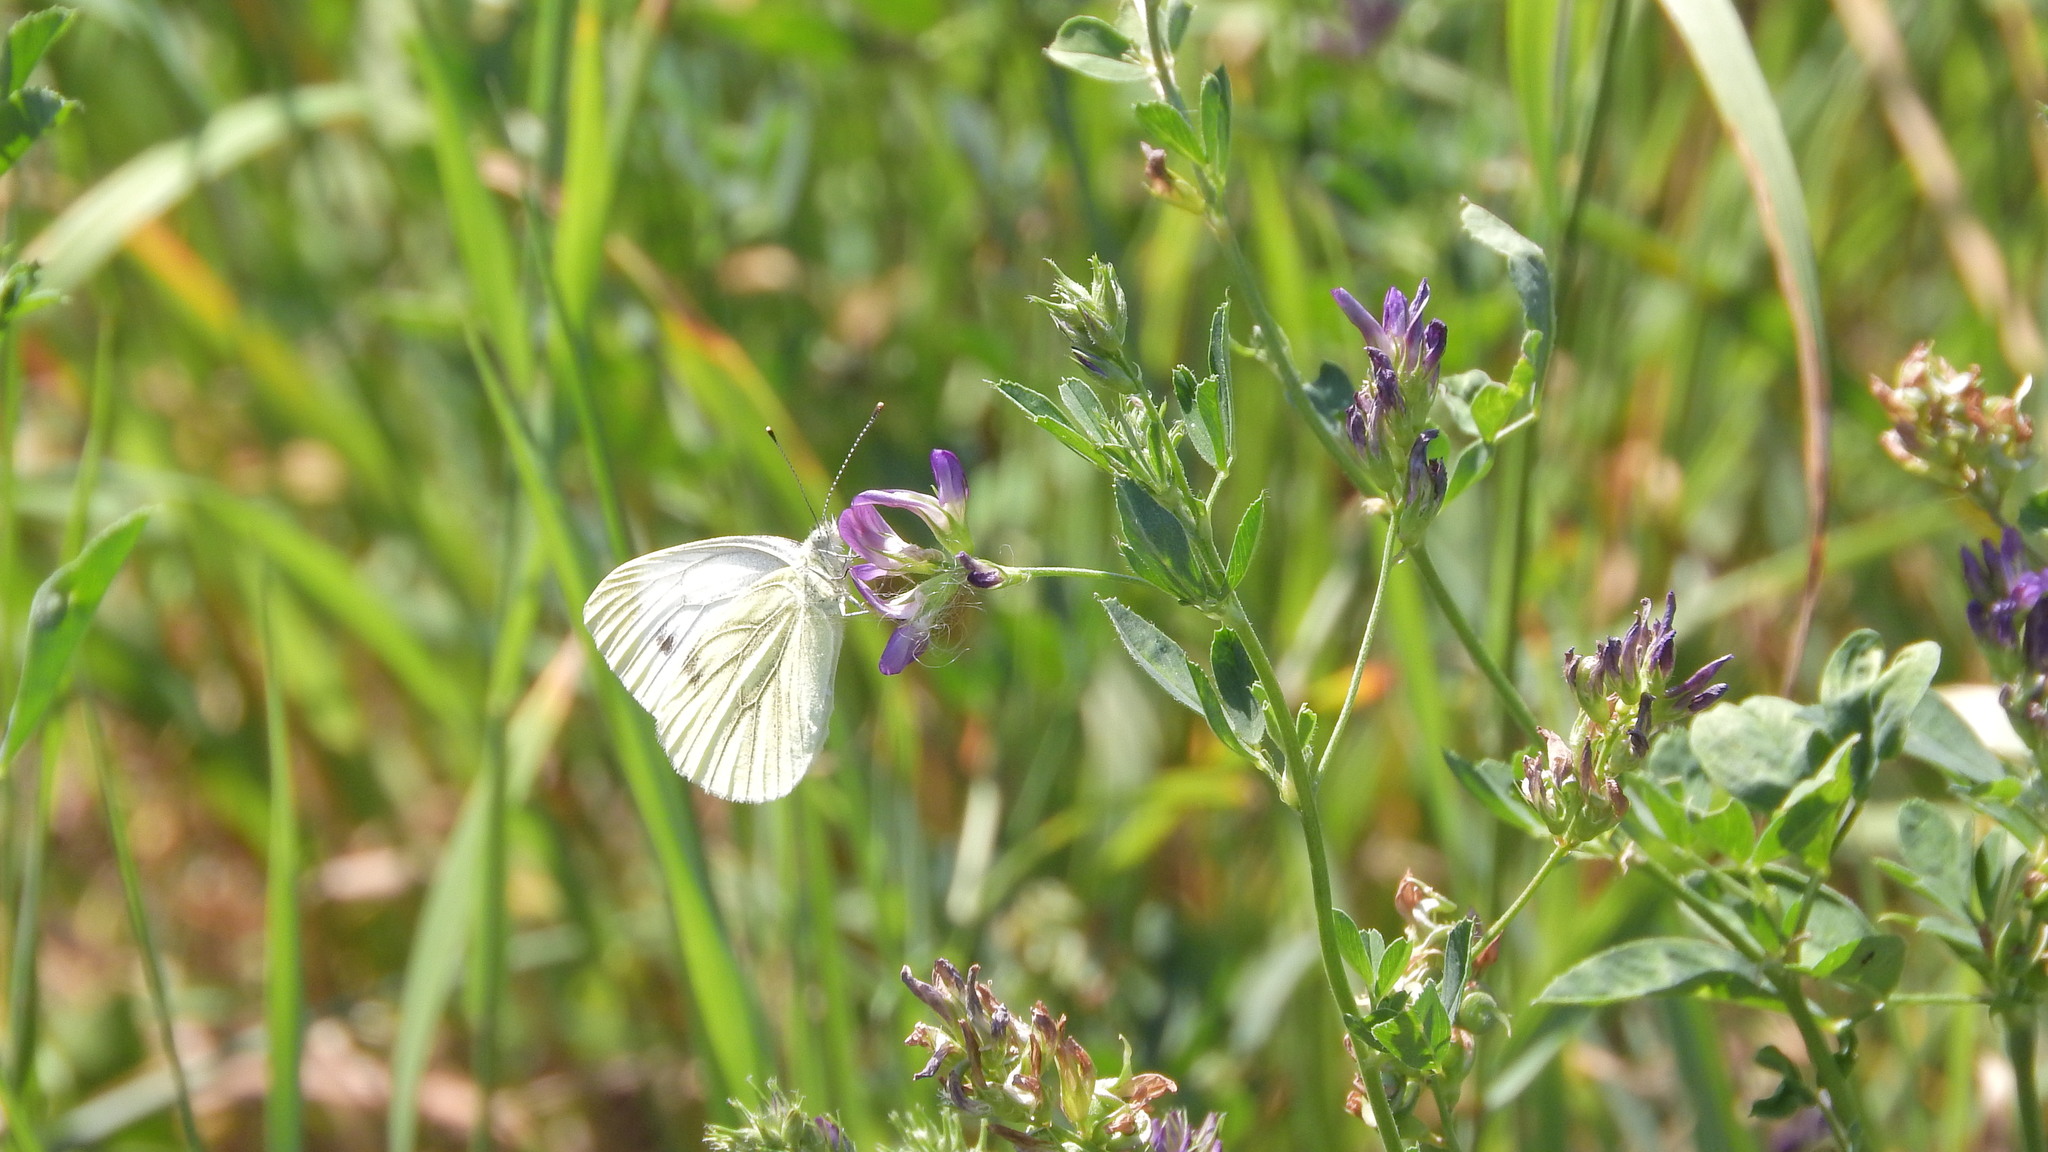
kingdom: Animalia
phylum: Arthropoda
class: Insecta
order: Lepidoptera
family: Pieridae
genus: Pieris
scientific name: Pieris napi
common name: Green-veined white
